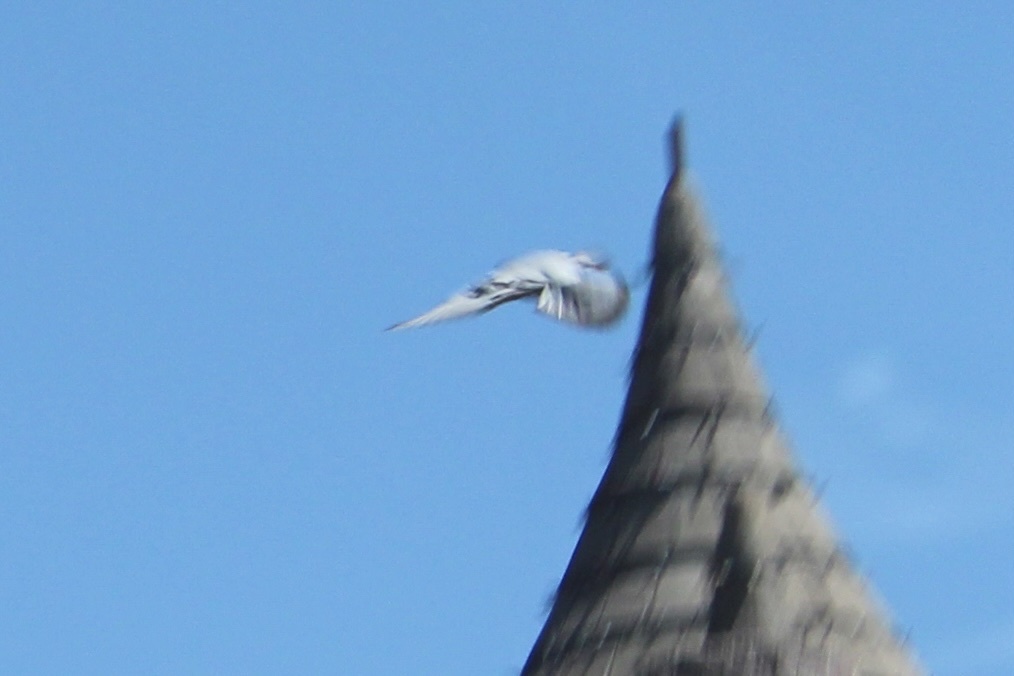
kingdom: Animalia
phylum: Chordata
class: Aves
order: Columbiformes
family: Columbidae
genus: Columba
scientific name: Columba livia
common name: Rock pigeon
